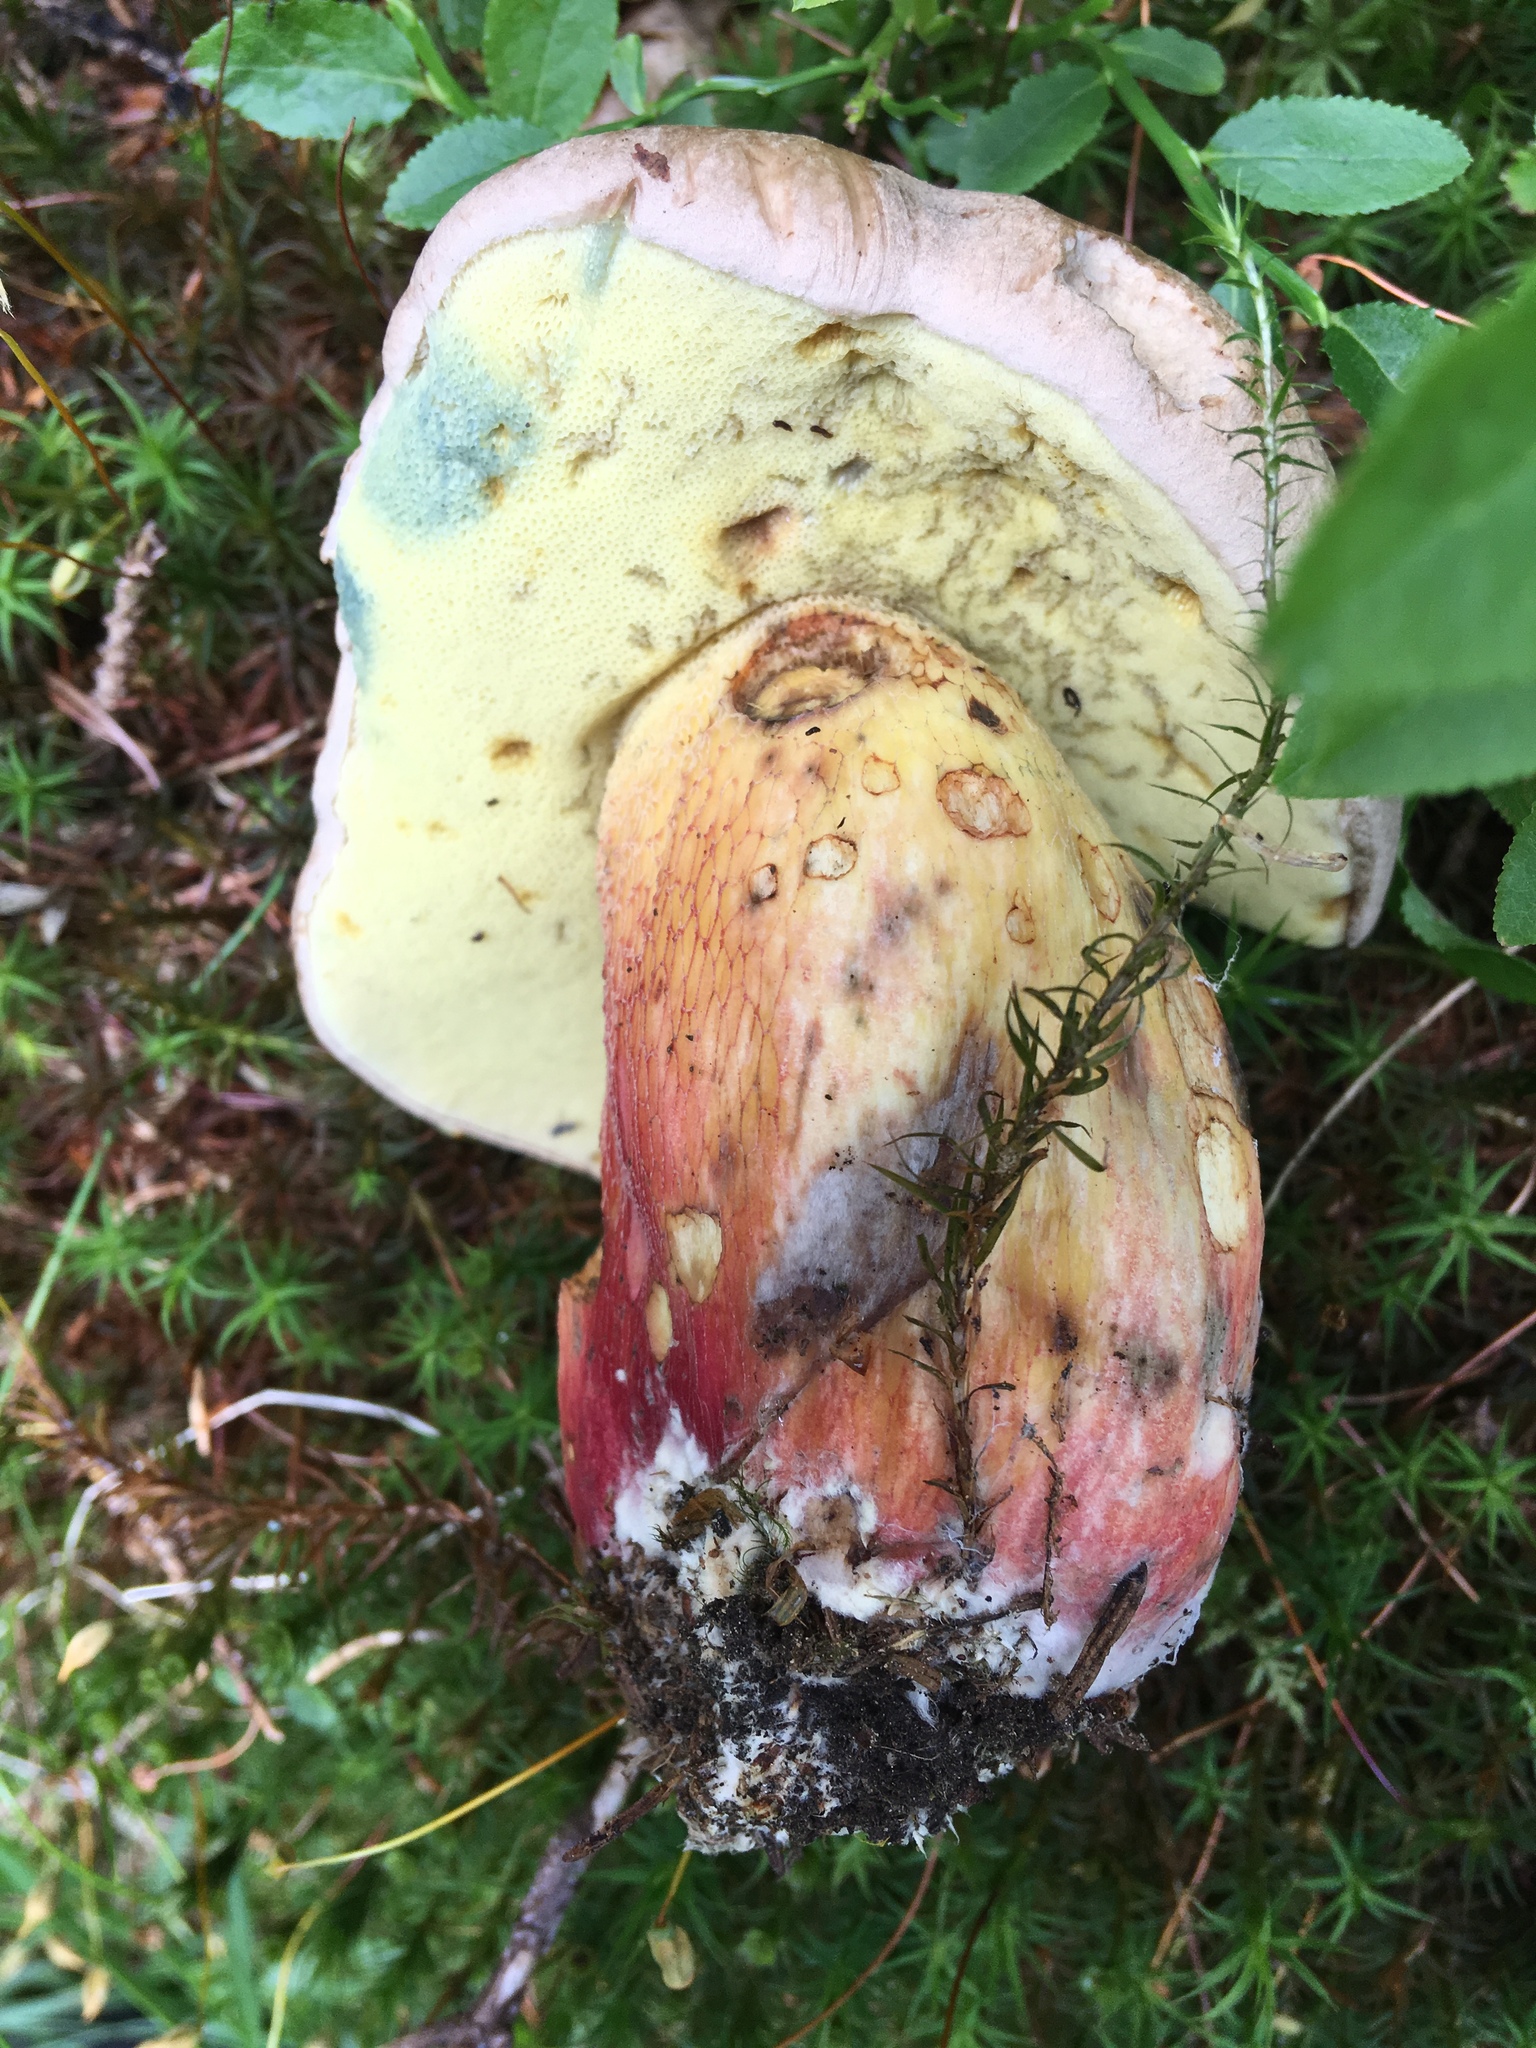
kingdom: Fungi
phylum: Basidiomycota
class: Agaricomycetes
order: Boletales
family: Boletaceae
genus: Caloboletus
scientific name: Caloboletus calopus
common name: Bitter beech bolete
